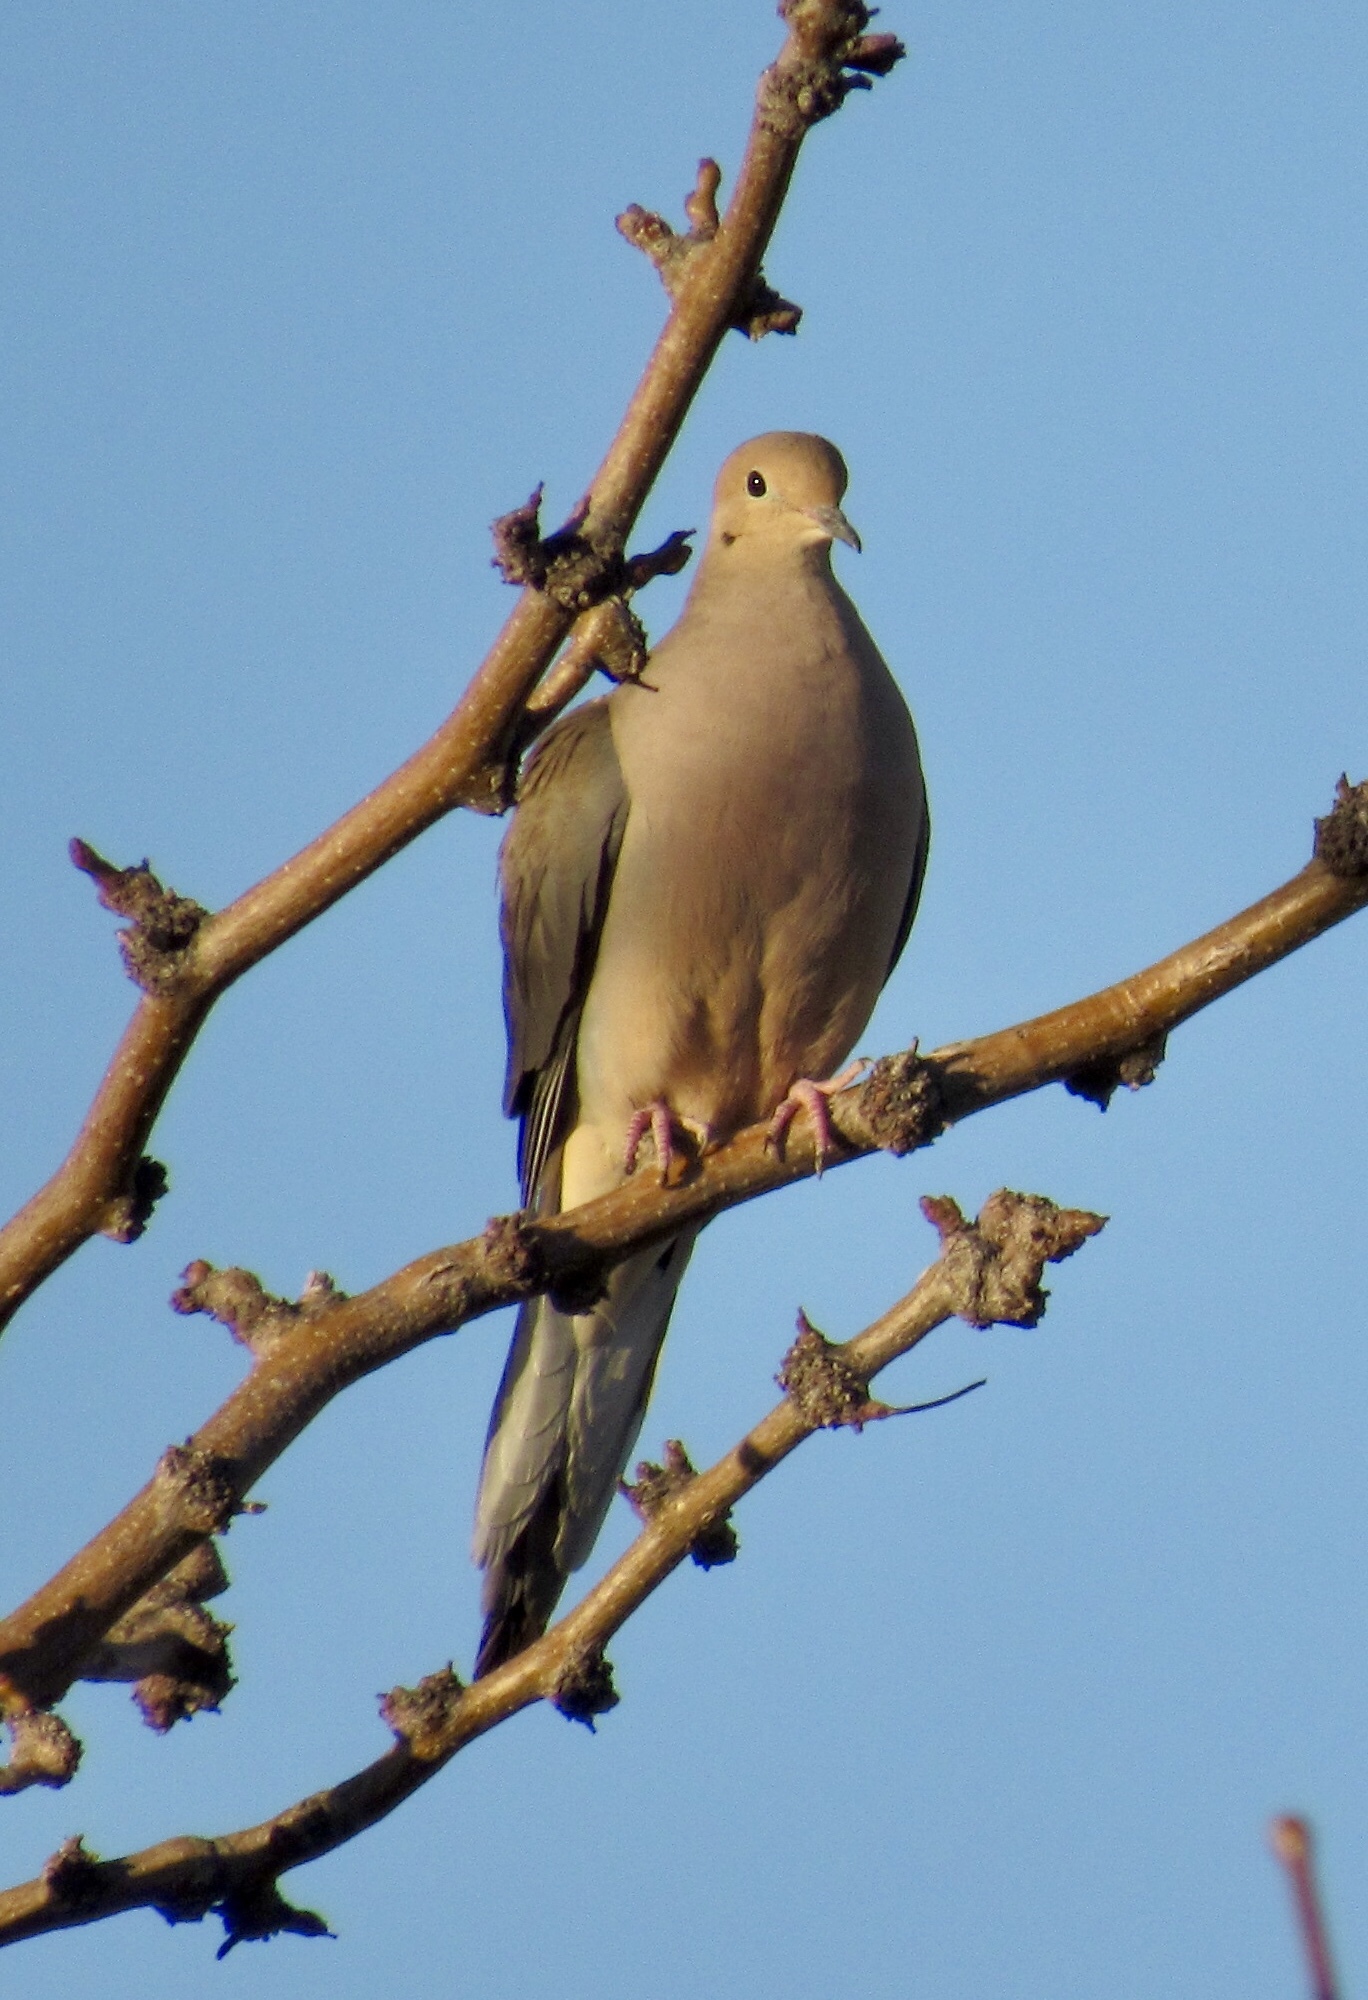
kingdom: Animalia
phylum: Chordata
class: Aves
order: Columbiformes
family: Columbidae
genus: Zenaida
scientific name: Zenaida macroura
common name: Mourning dove
